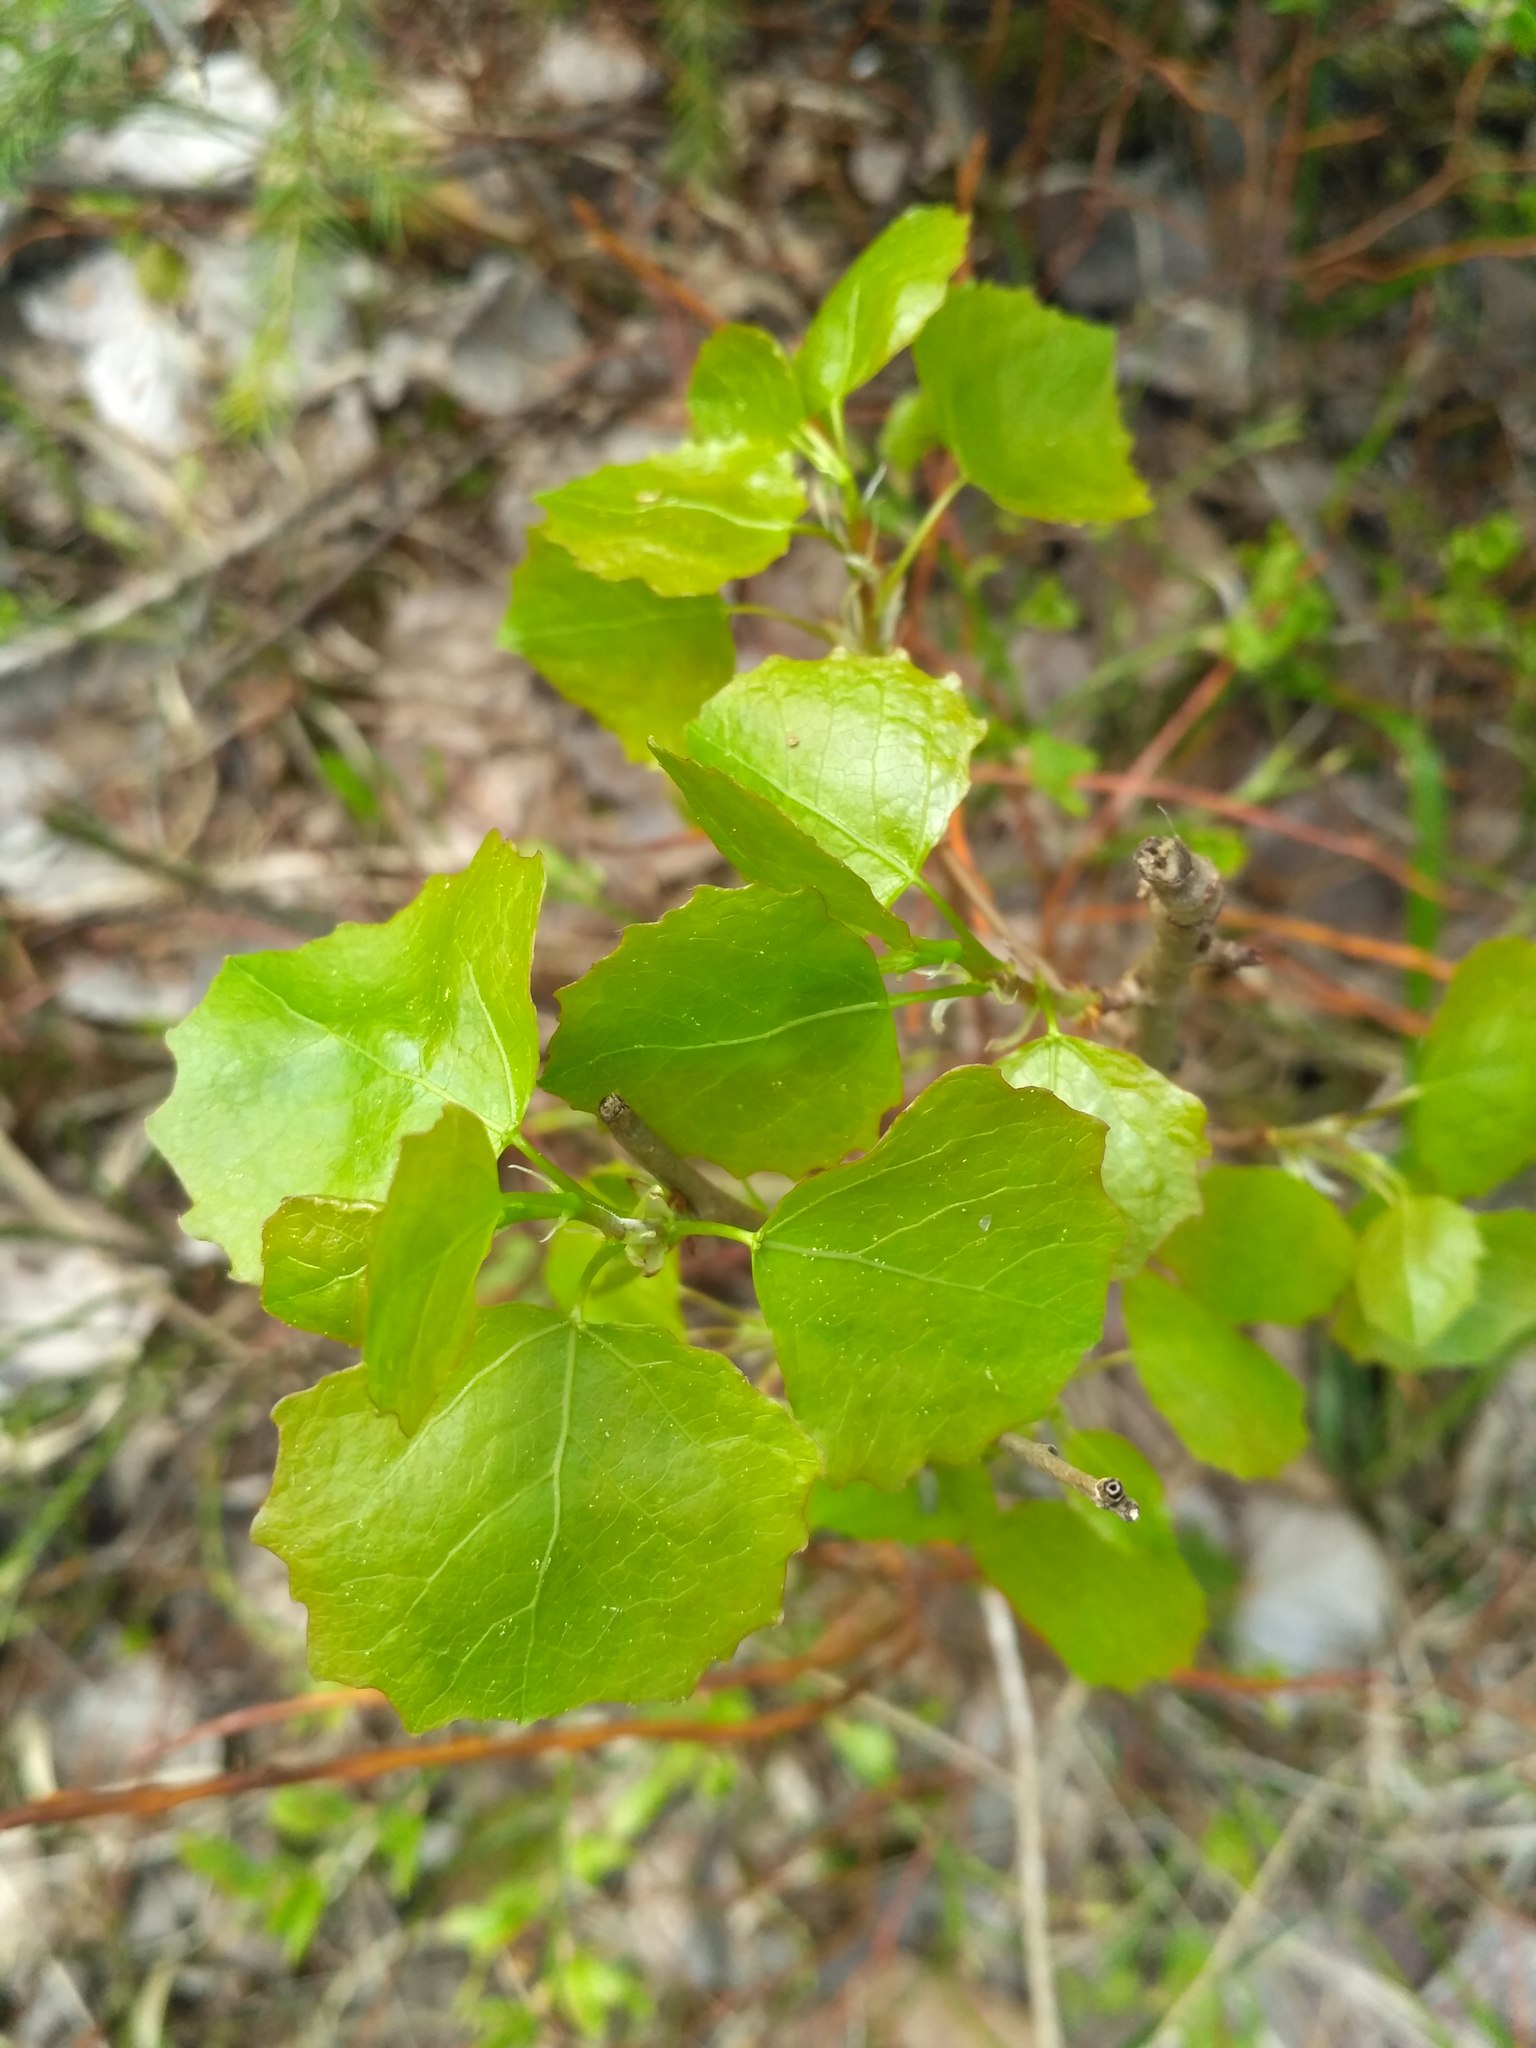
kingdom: Plantae
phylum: Tracheophyta
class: Magnoliopsida
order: Malpighiales
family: Salicaceae
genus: Populus
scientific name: Populus tremula
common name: European aspen
